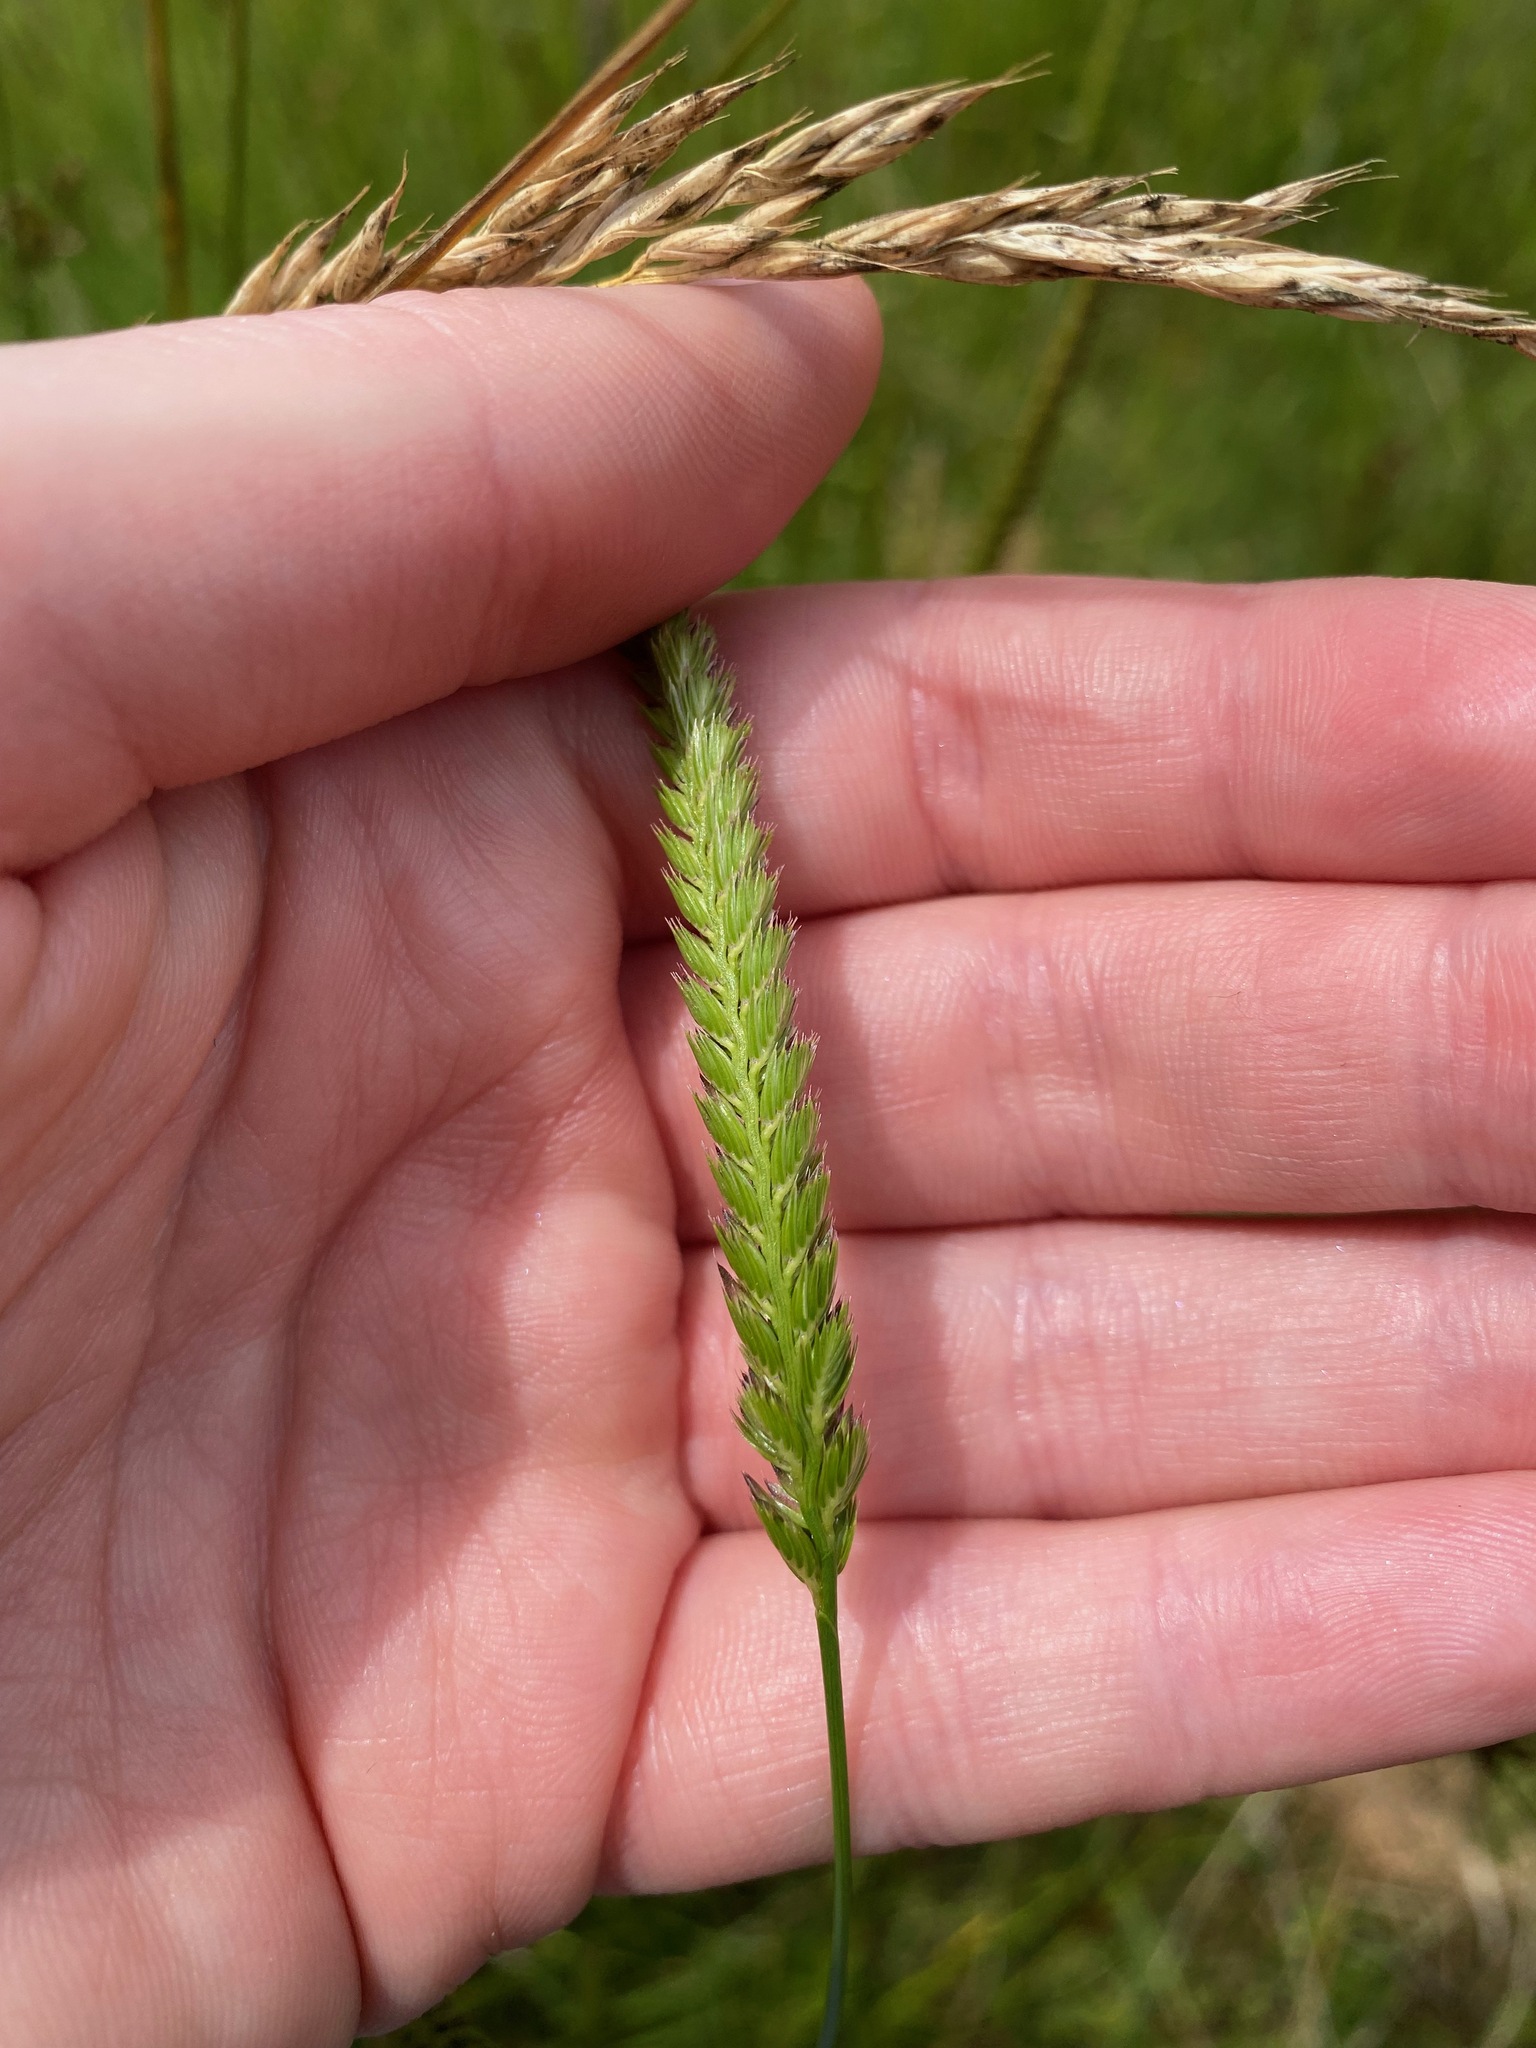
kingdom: Plantae
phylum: Tracheophyta
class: Liliopsida
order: Poales
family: Poaceae
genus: Cynosurus
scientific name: Cynosurus cristatus
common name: Crested dog's-tail
